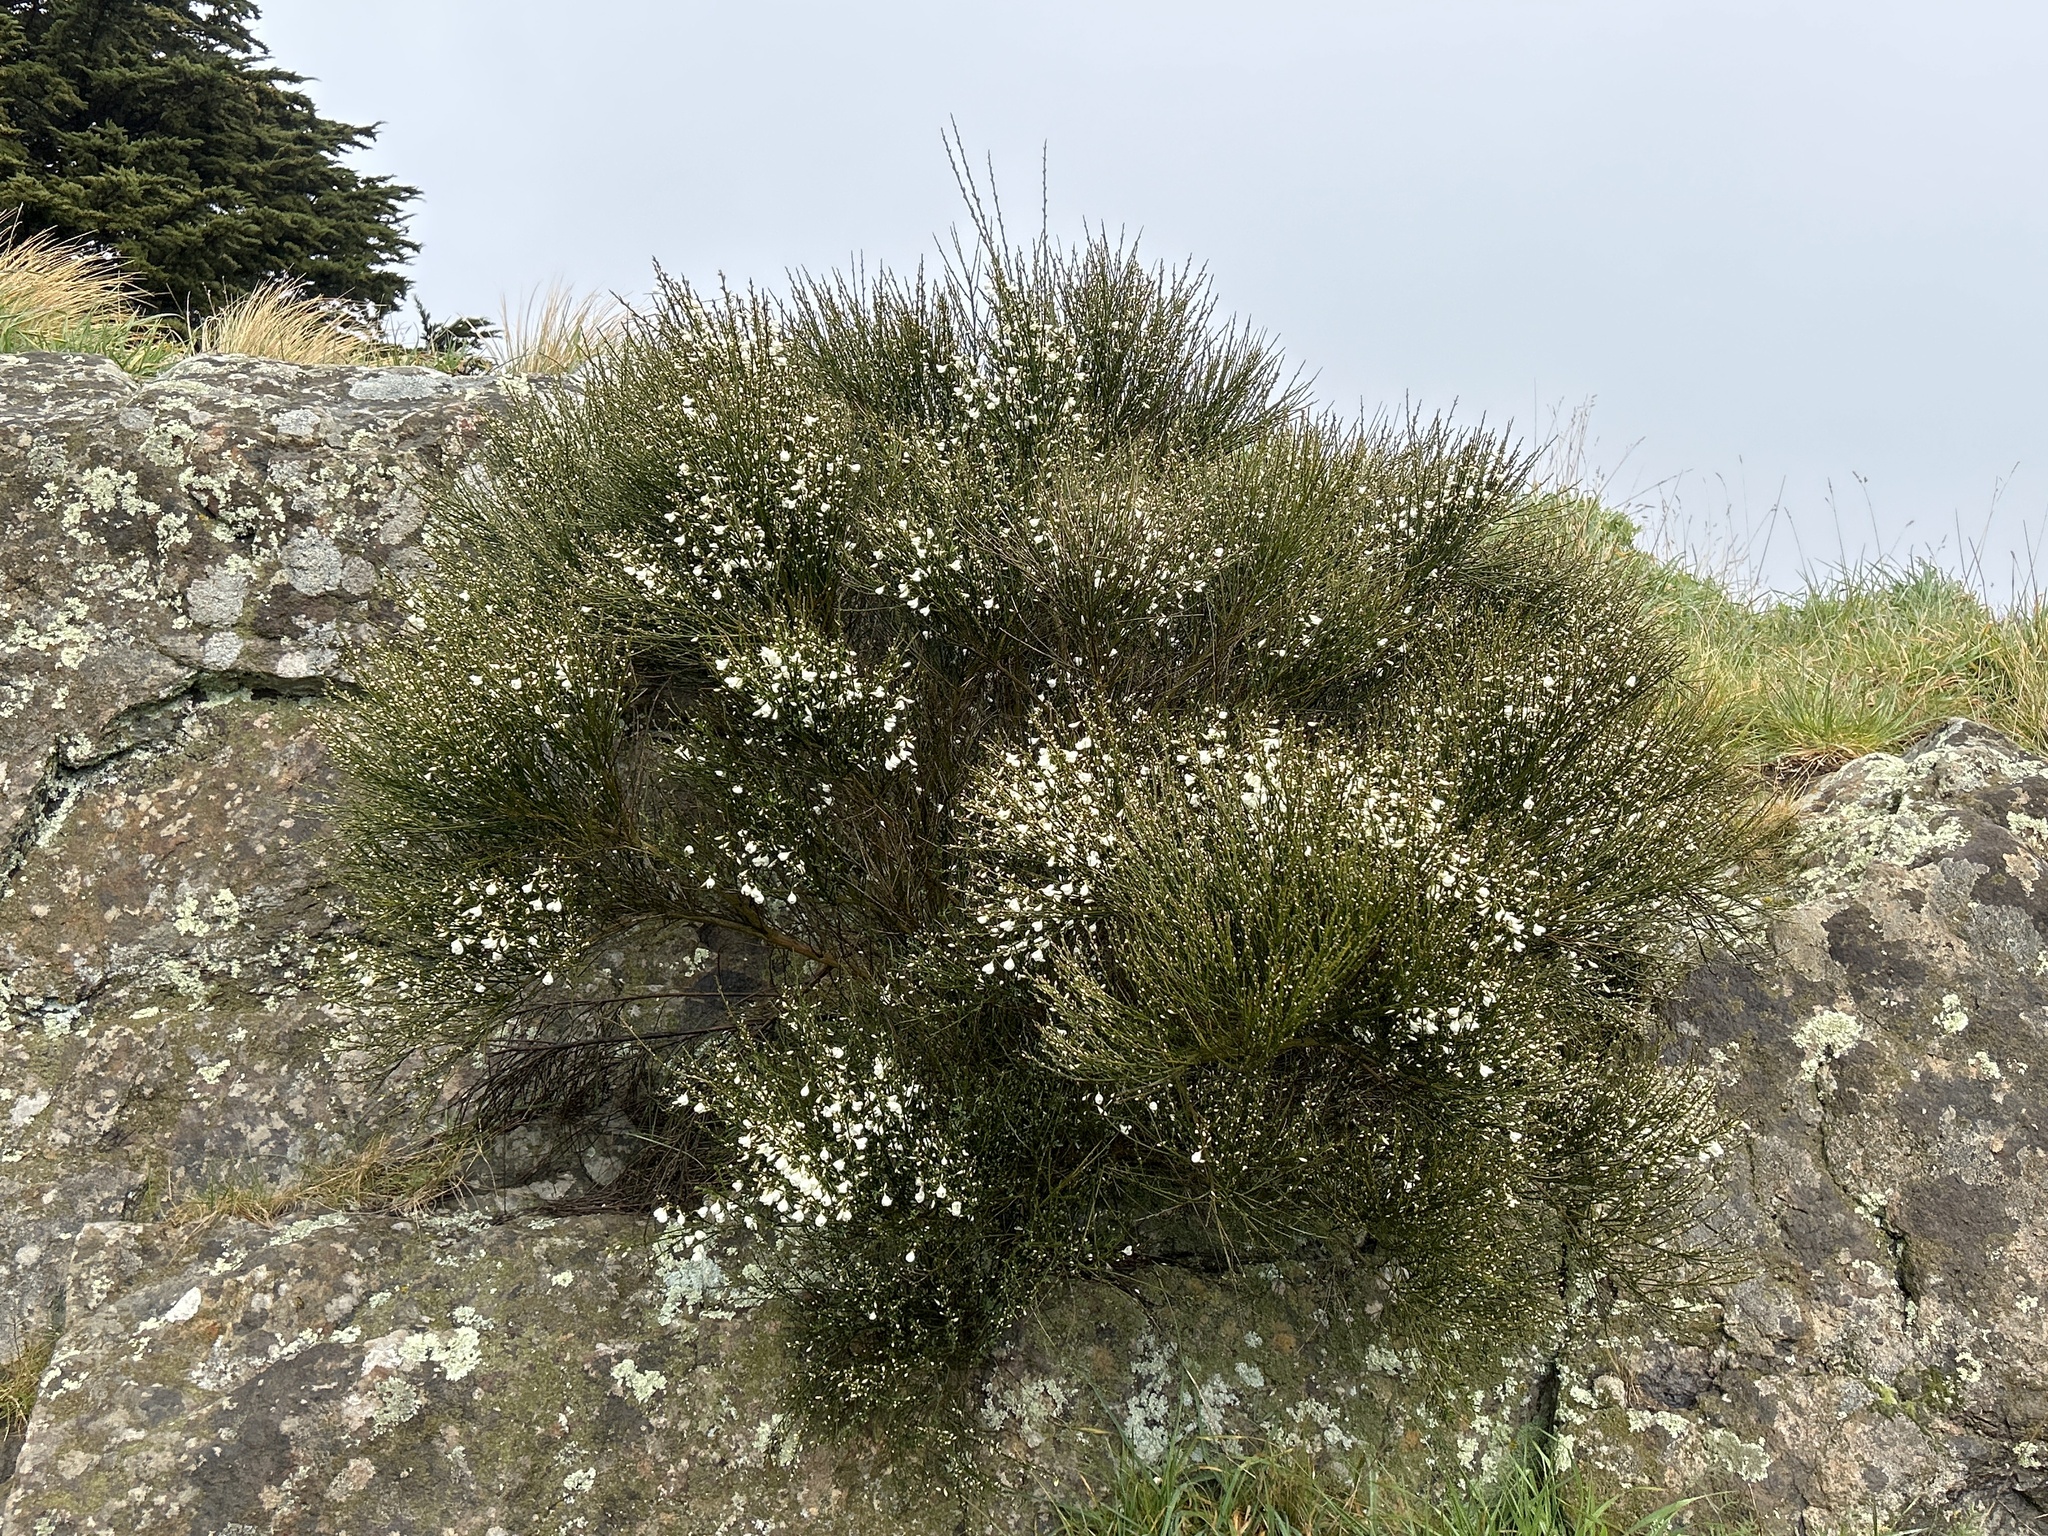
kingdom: Plantae
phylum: Tracheophyta
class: Magnoliopsida
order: Fabales
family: Fabaceae
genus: Cytisus
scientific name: Cytisus multiflorus
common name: White broom
